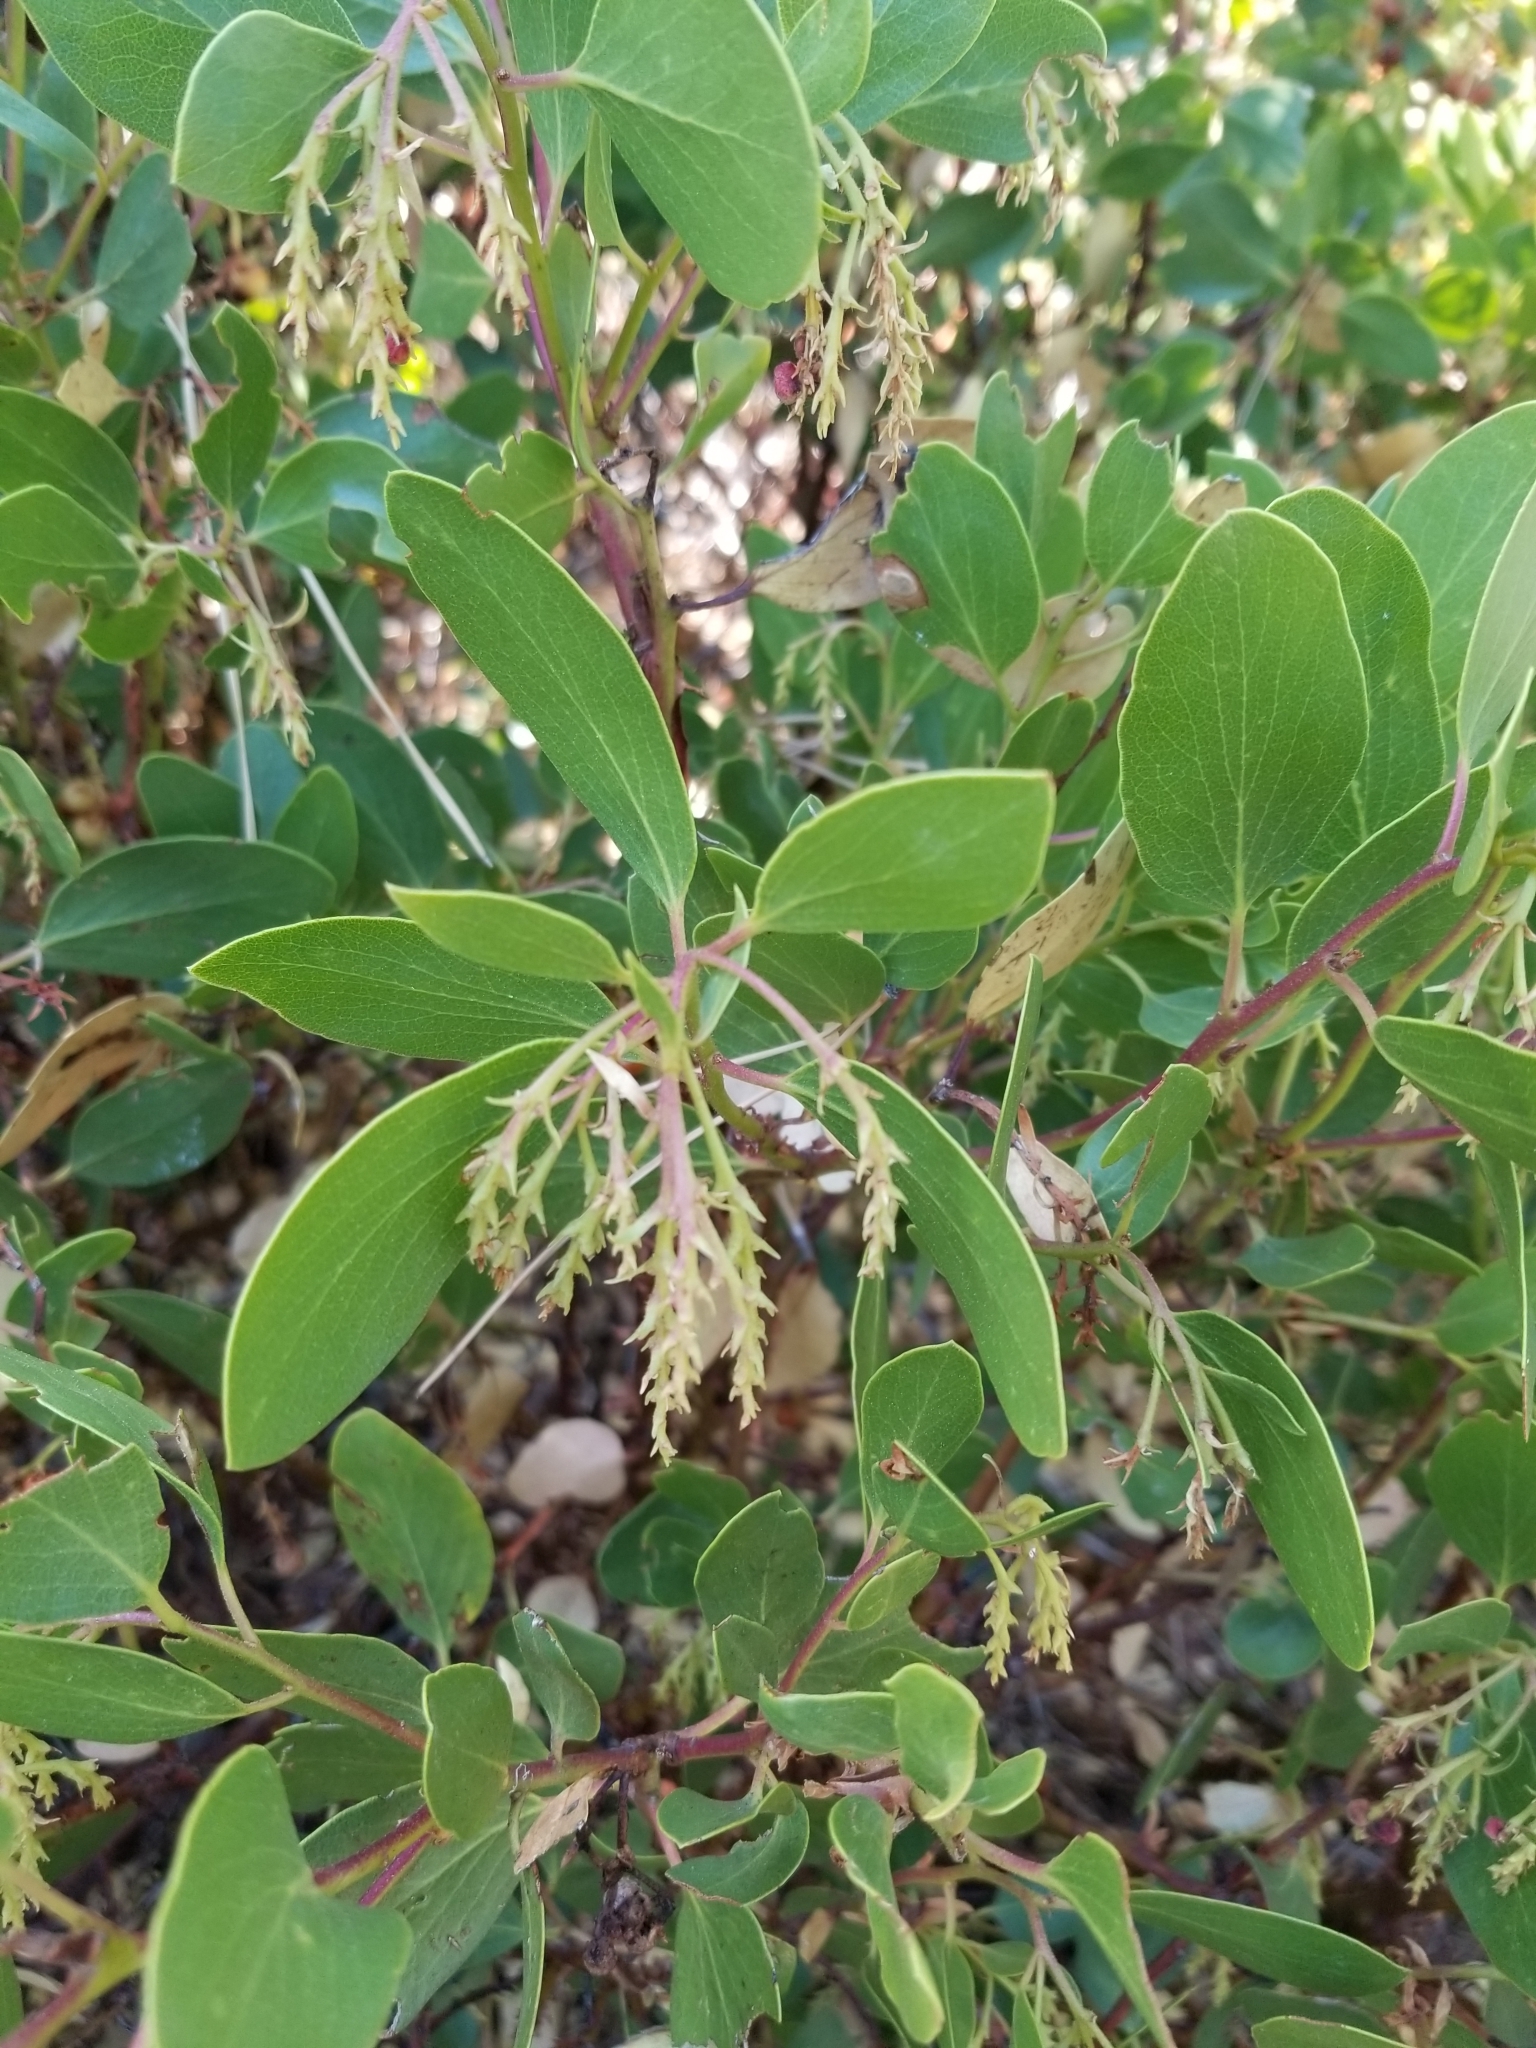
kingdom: Plantae
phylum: Tracheophyta
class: Magnoliopsida
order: Ericales
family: Ericaceae
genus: Arctostaphylos
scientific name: Arctostaphylos patula
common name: Green-leaf manzanita
